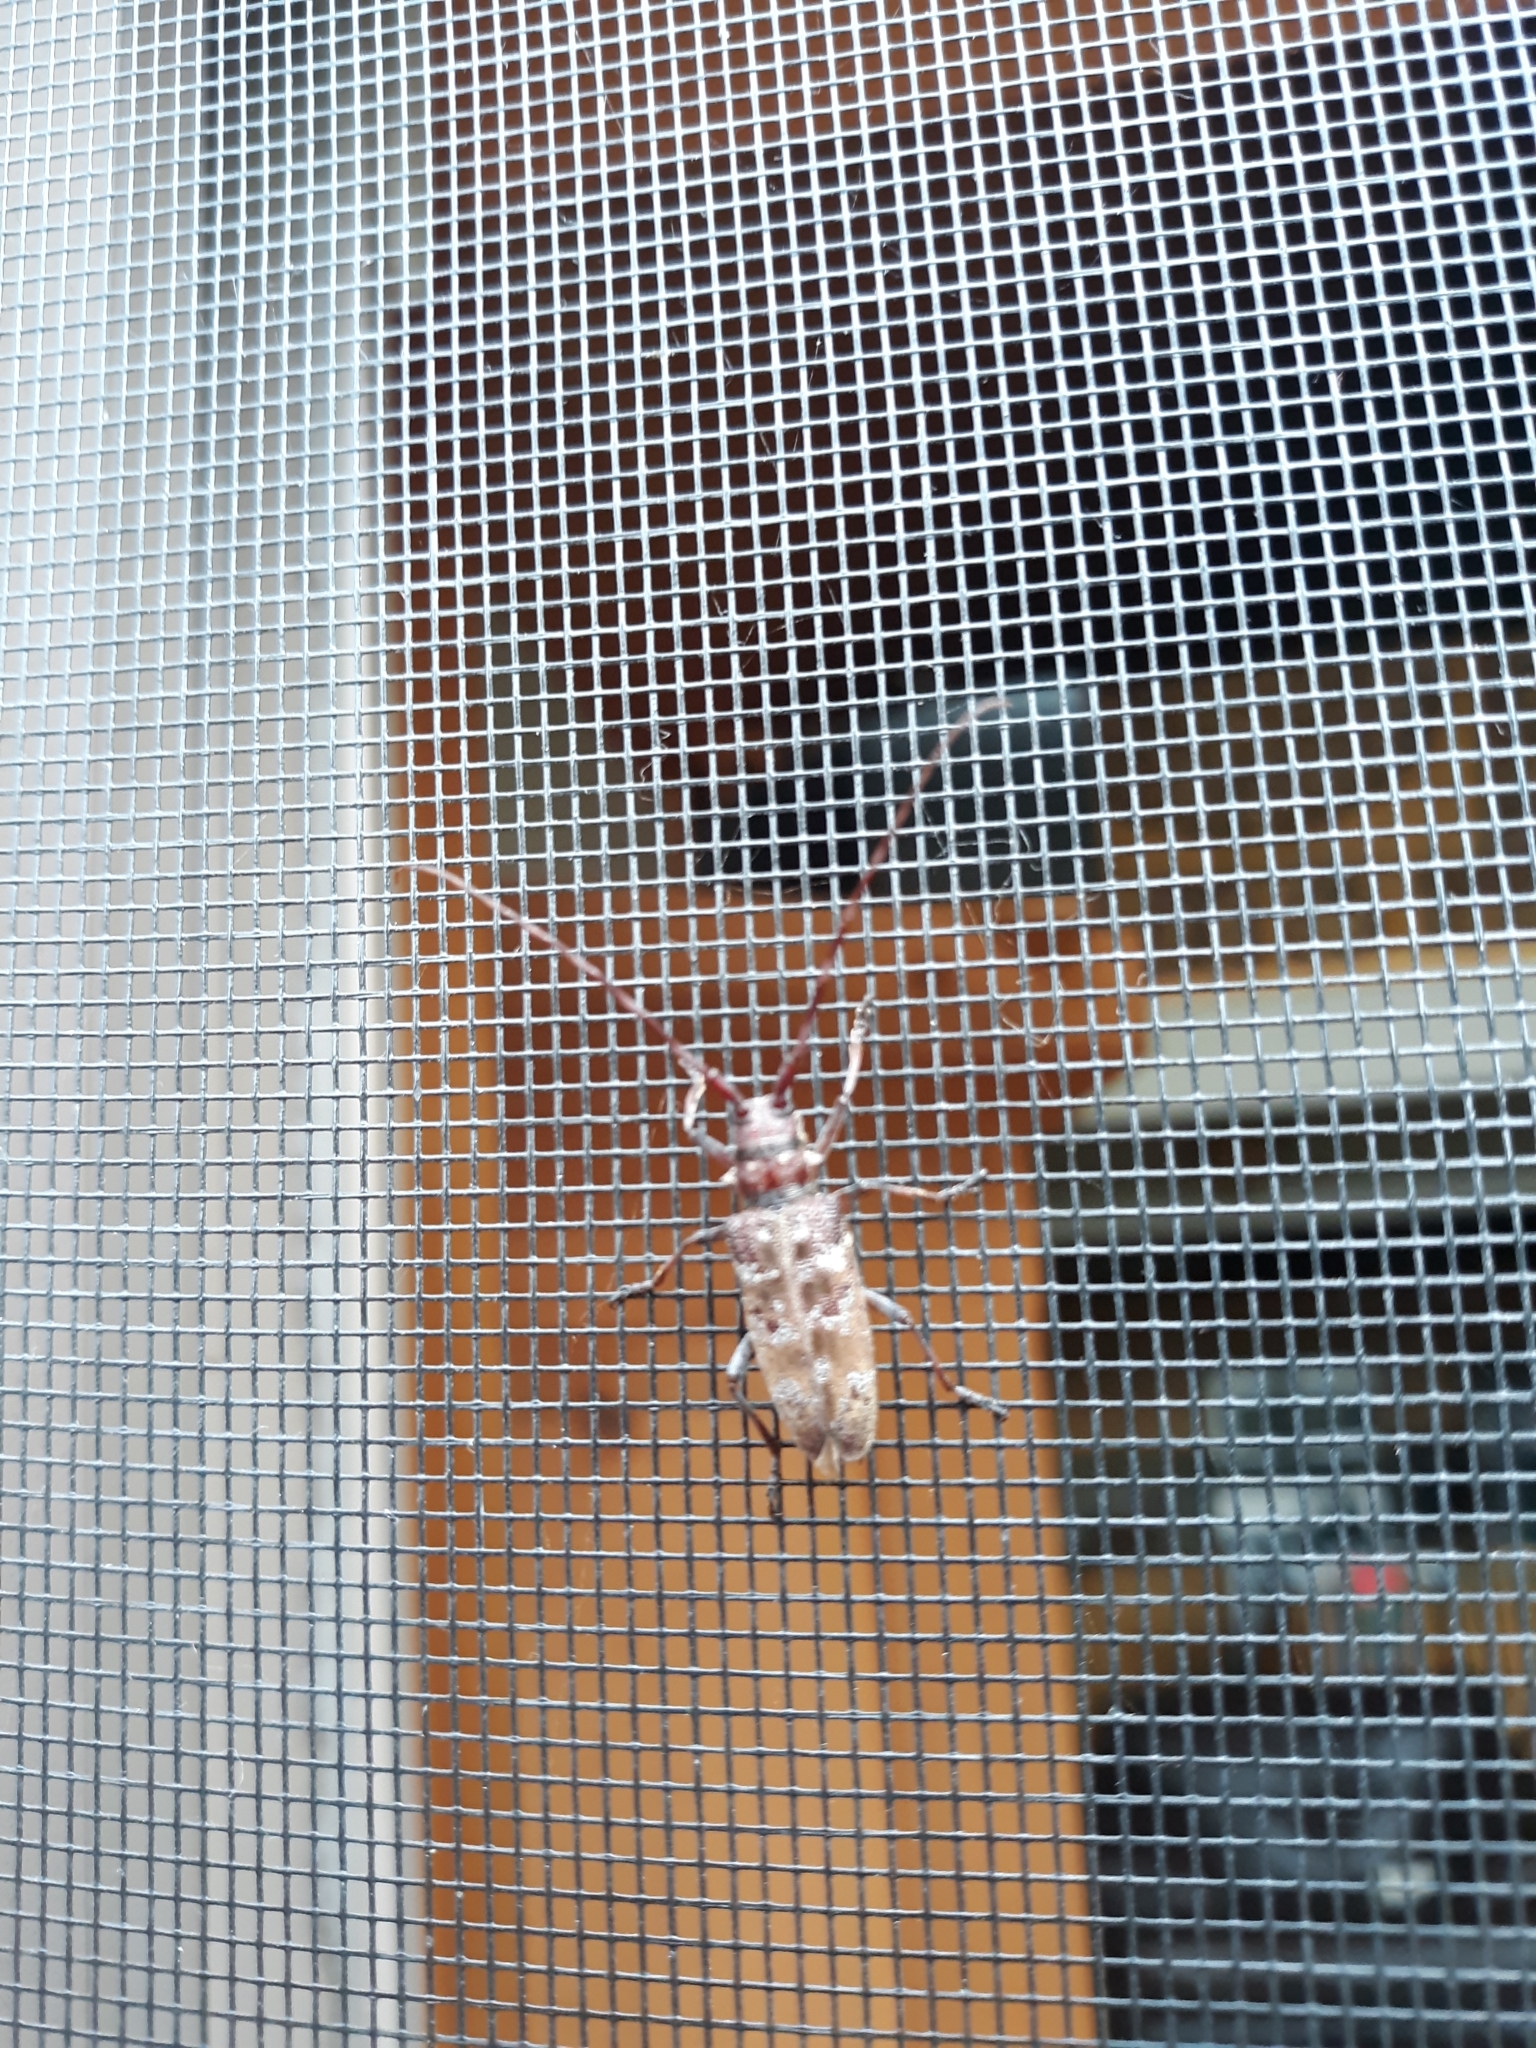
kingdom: Animalia
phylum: Arthropoda
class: Insecta
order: Coleoptera
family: Cerambycidae
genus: Monochamus
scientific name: Monochamus obtusus
